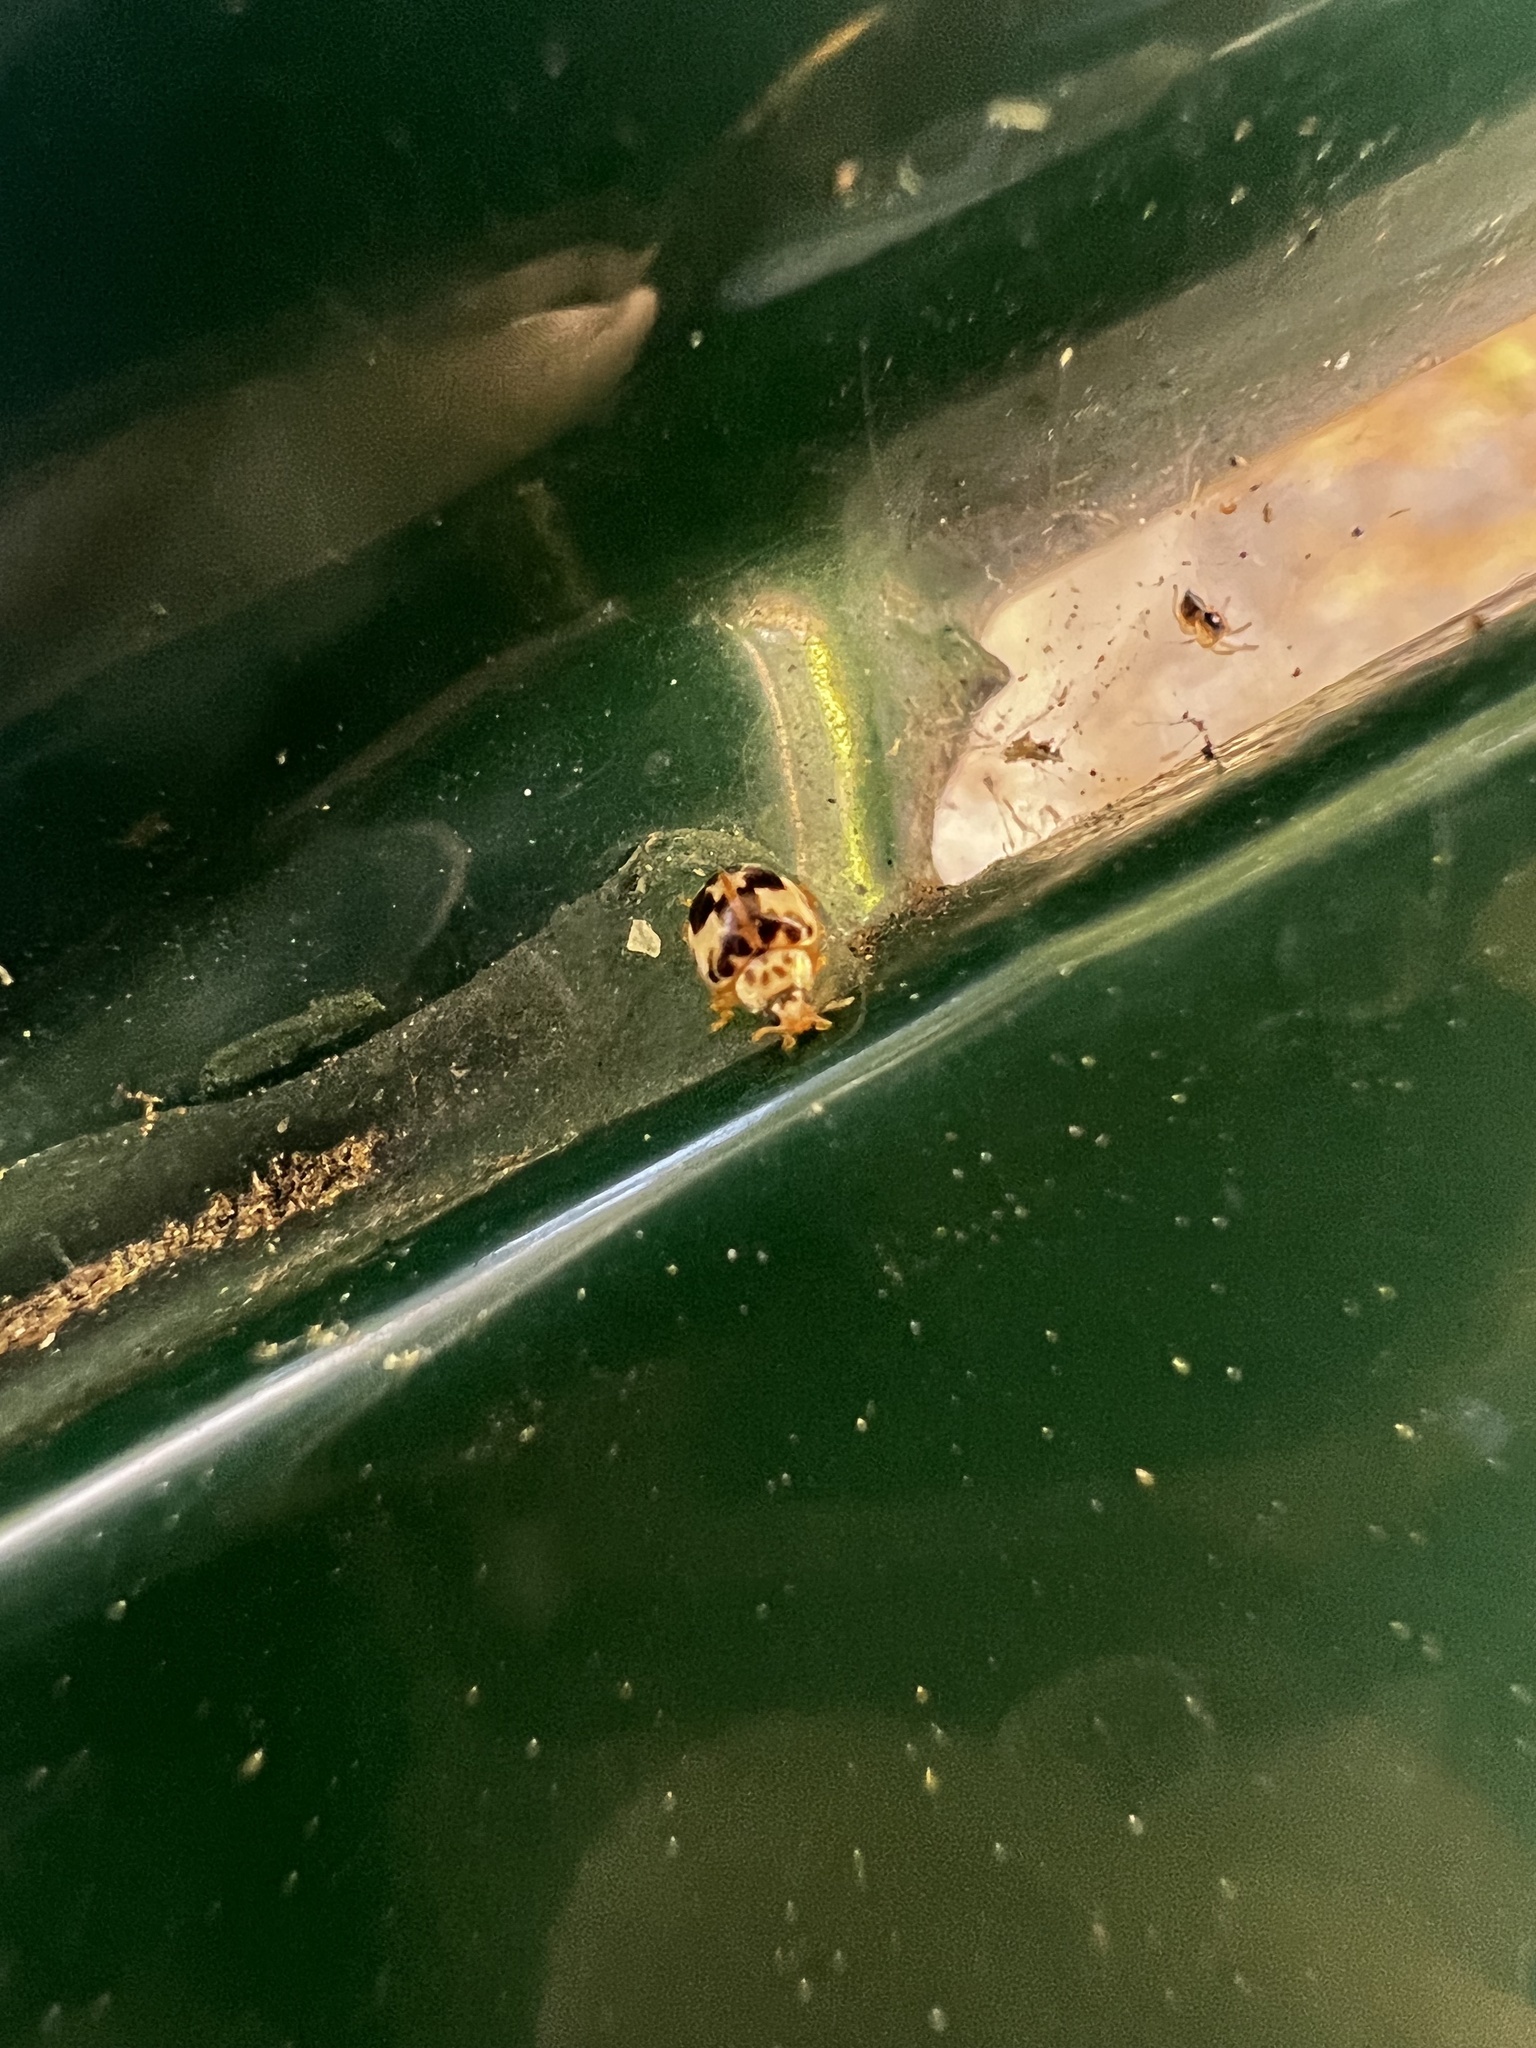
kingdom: Animalia
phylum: Arthropoda
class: Insecta
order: Coleoptera
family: Coccinellidae
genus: Psyllobora
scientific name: Psyllobora borealis
